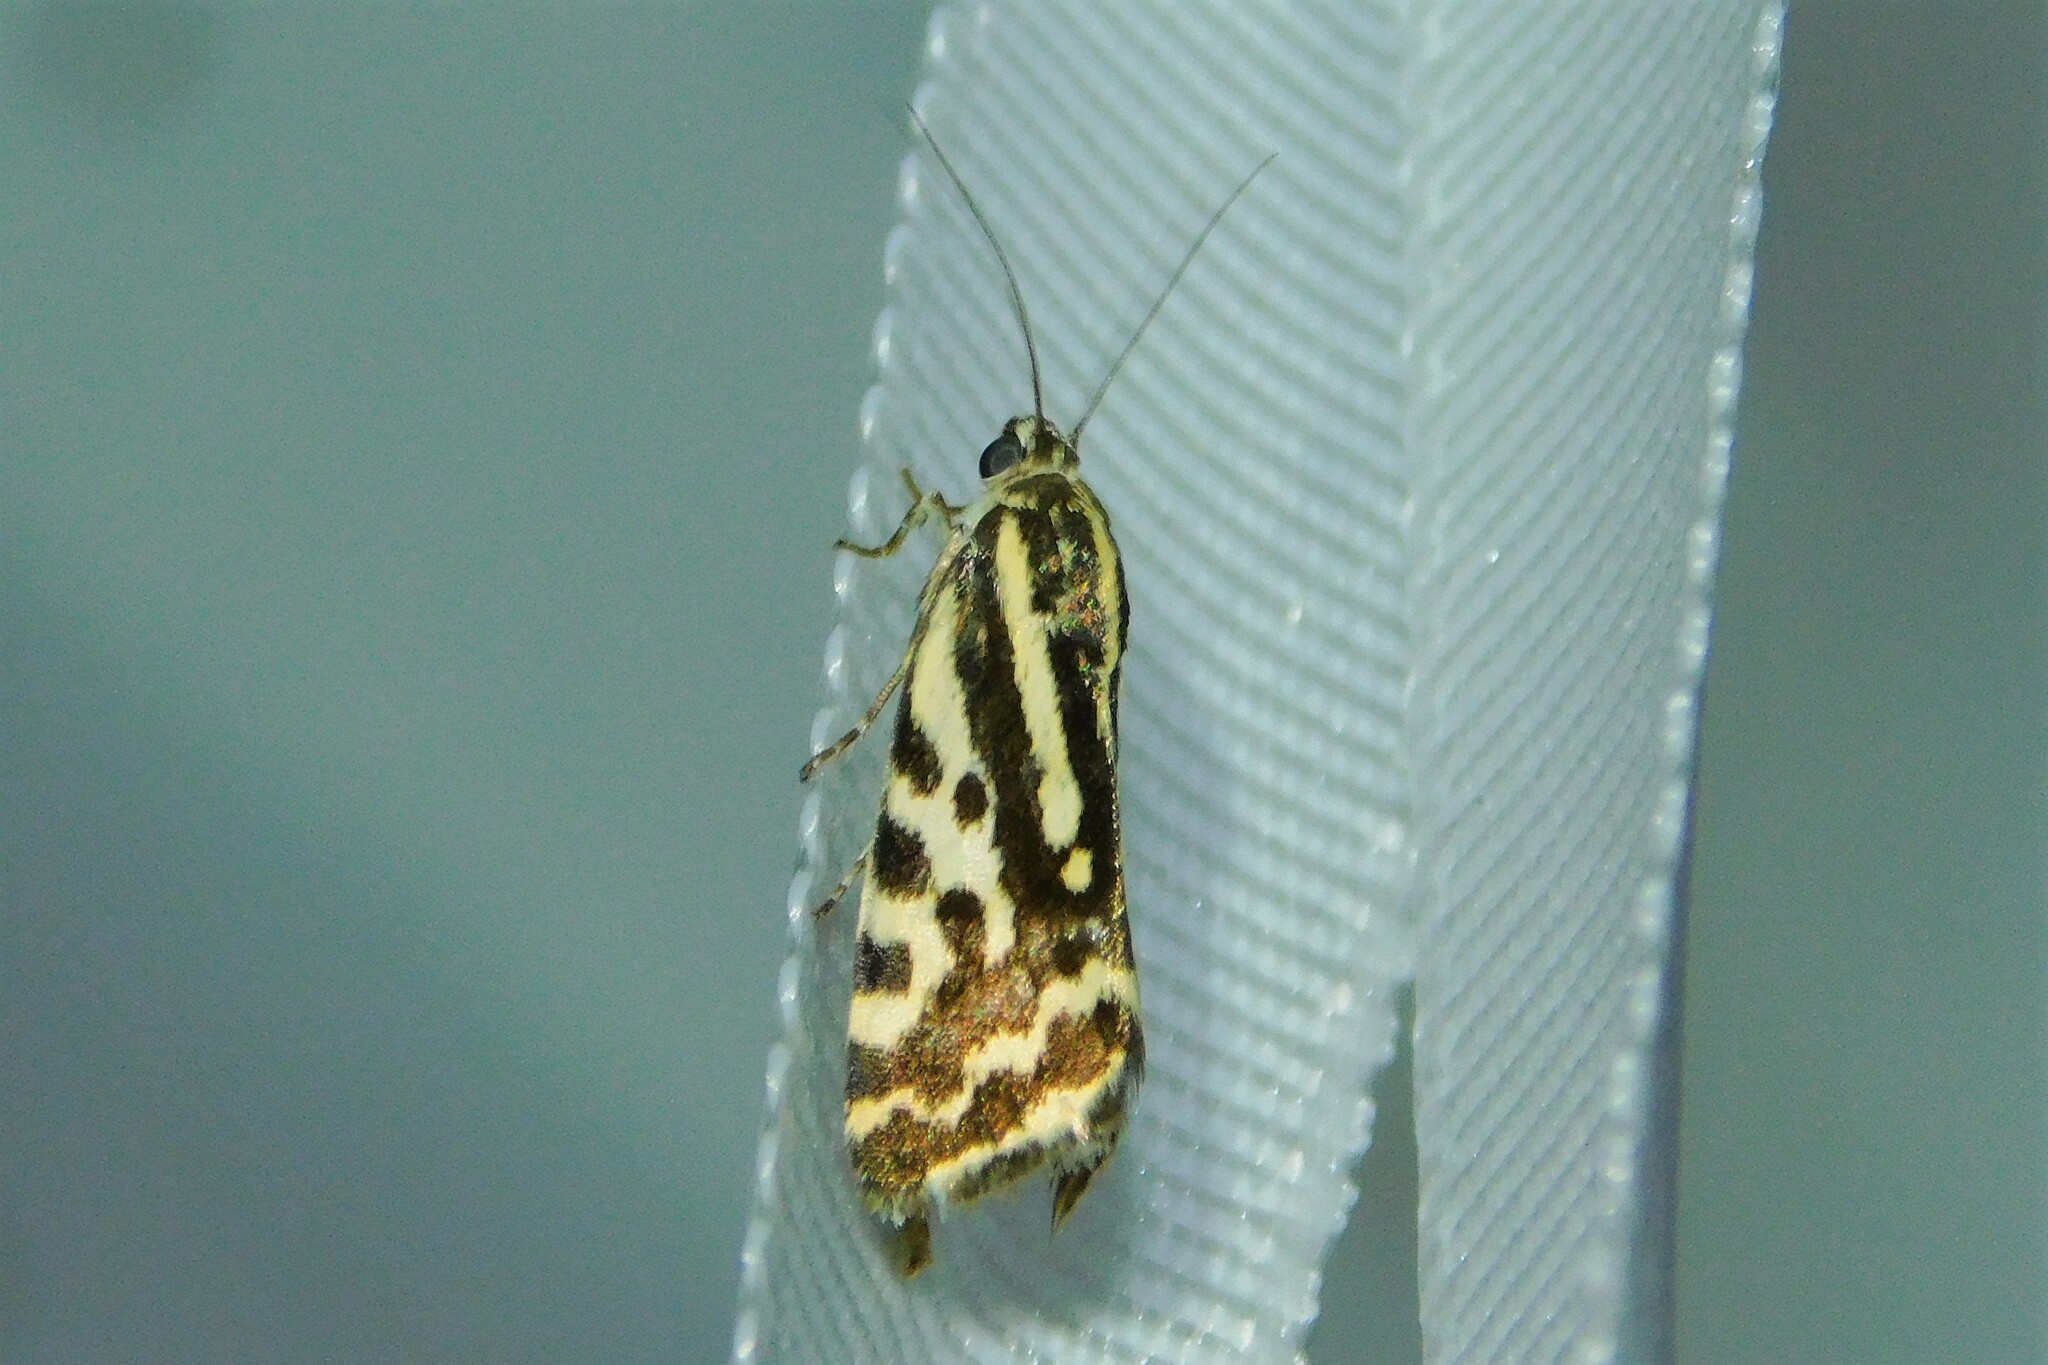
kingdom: Animalia
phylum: Arthropoda
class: Insecta
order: Lepidoptera
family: Noctuidae
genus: Acontia
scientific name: Acontia trabealis
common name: Spotted sulphur
